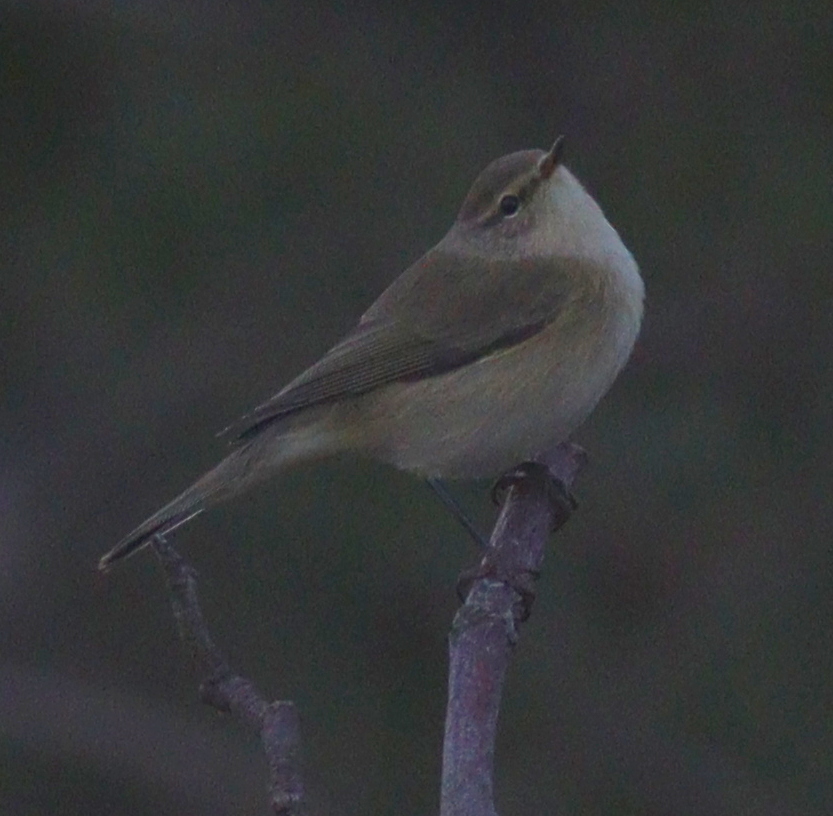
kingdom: Animalia
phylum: Chordata
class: Aves
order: Passeriformes
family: Phylloscopidae
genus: Phylloscopus
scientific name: Phylloscopus collybita
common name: Common chiffchaff
